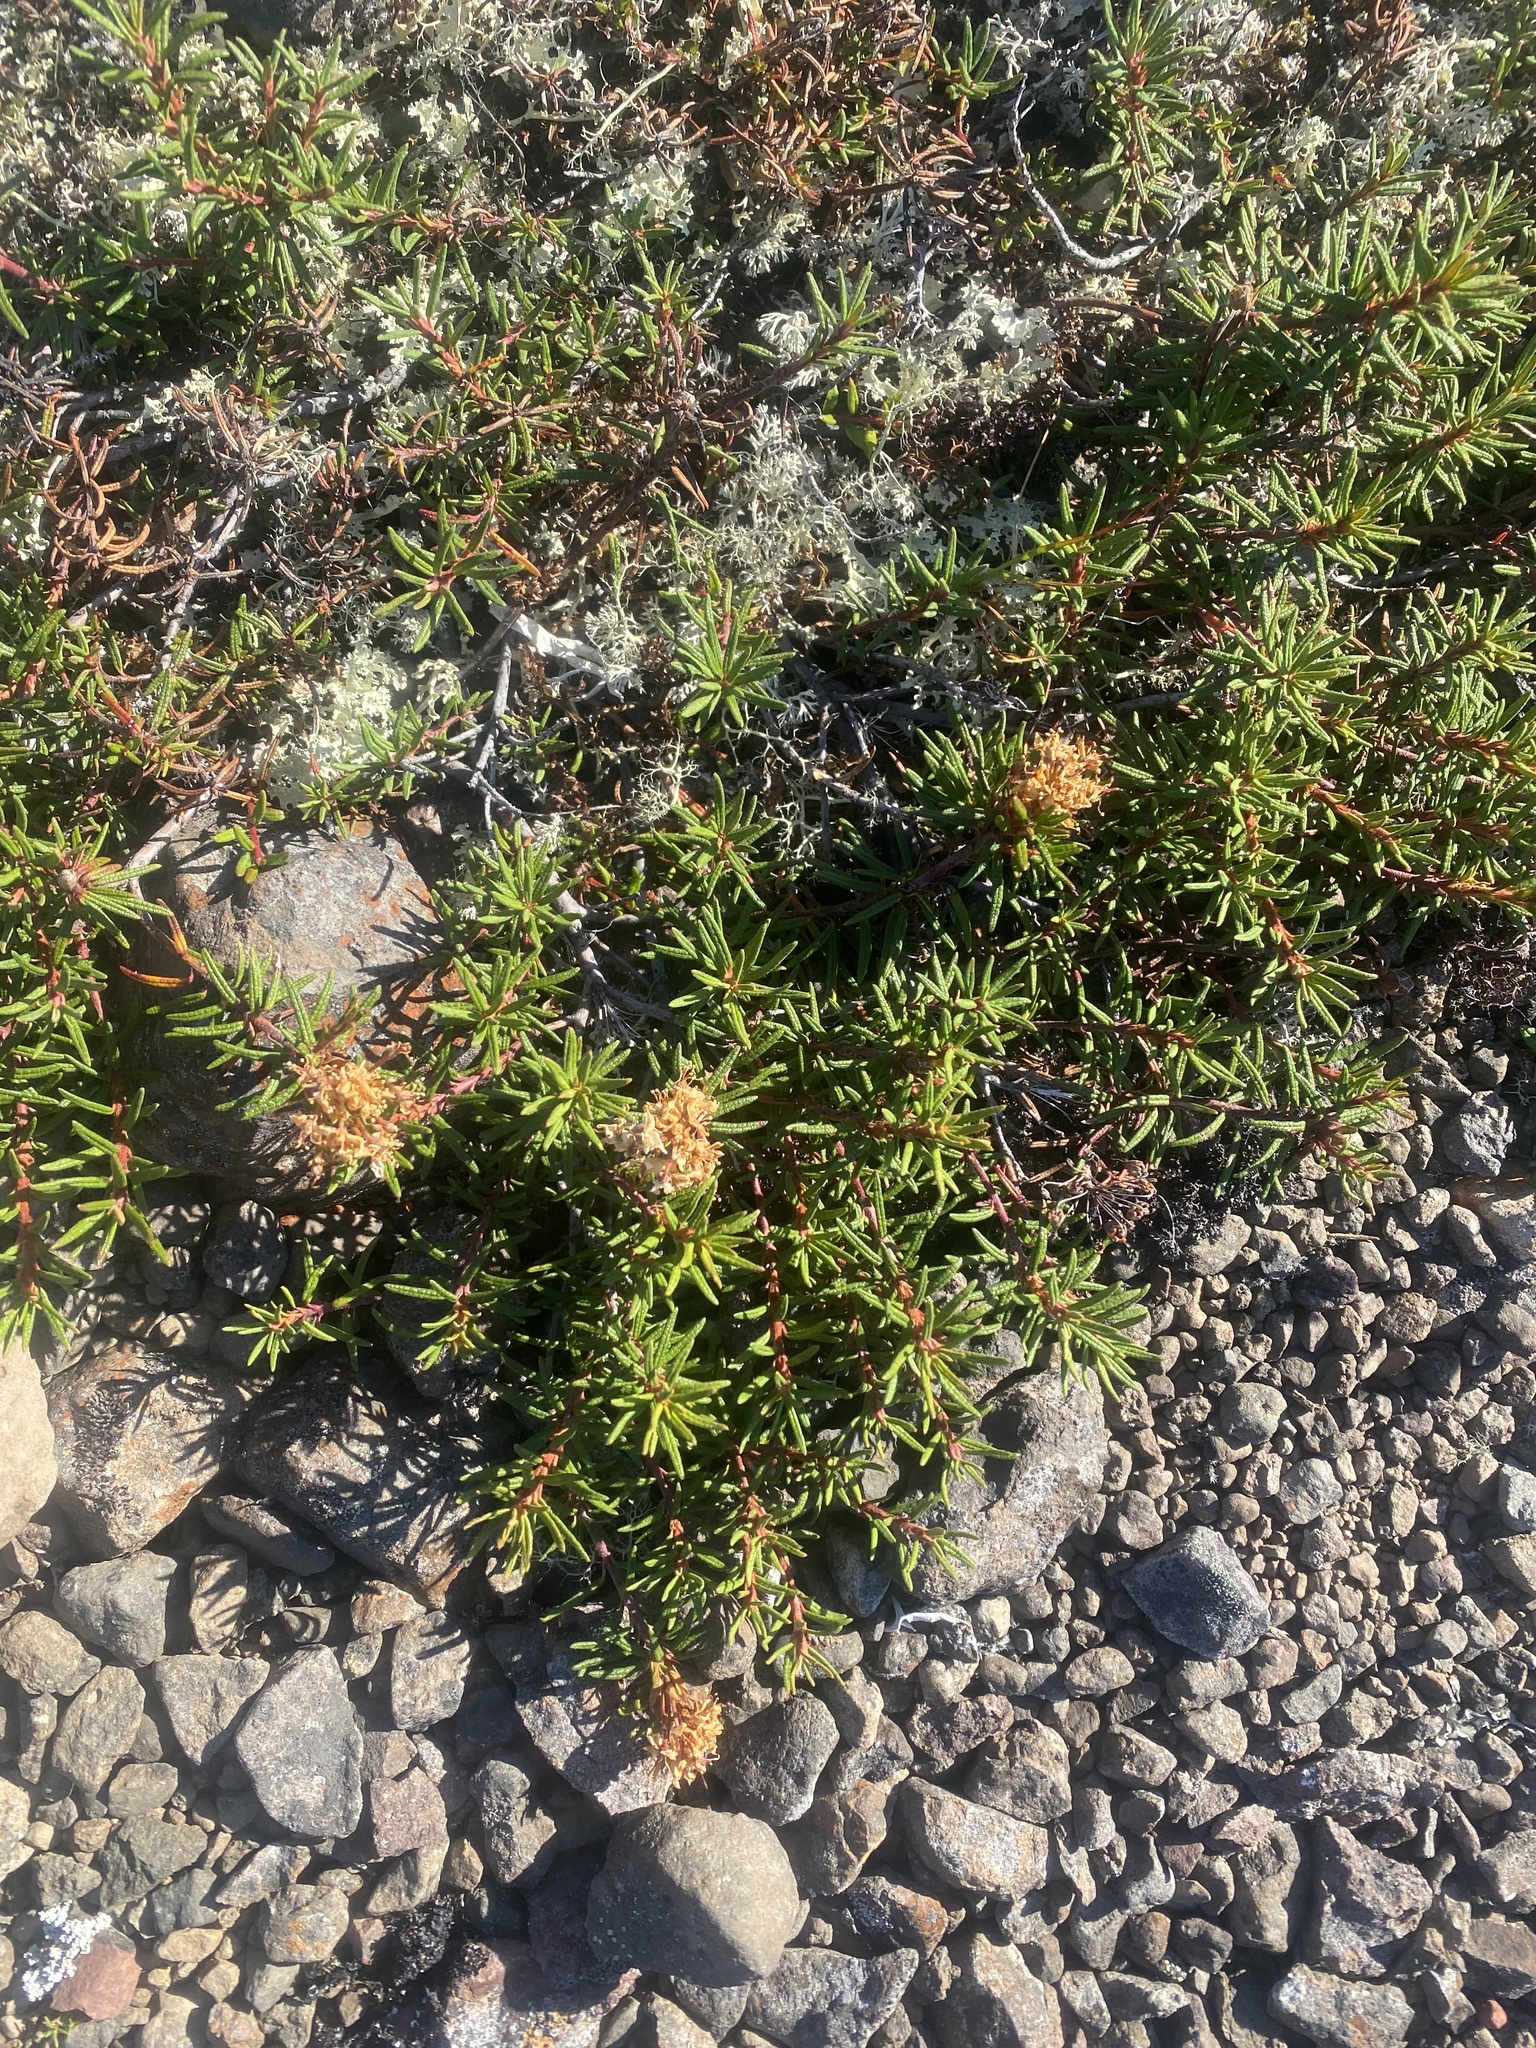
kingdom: Plantae
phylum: Tracheophyta
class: Magnoliopsida
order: Ericales
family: Ericaceae
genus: Rhododendron
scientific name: Rhododendron tomentosum
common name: Marsh labrador tea
